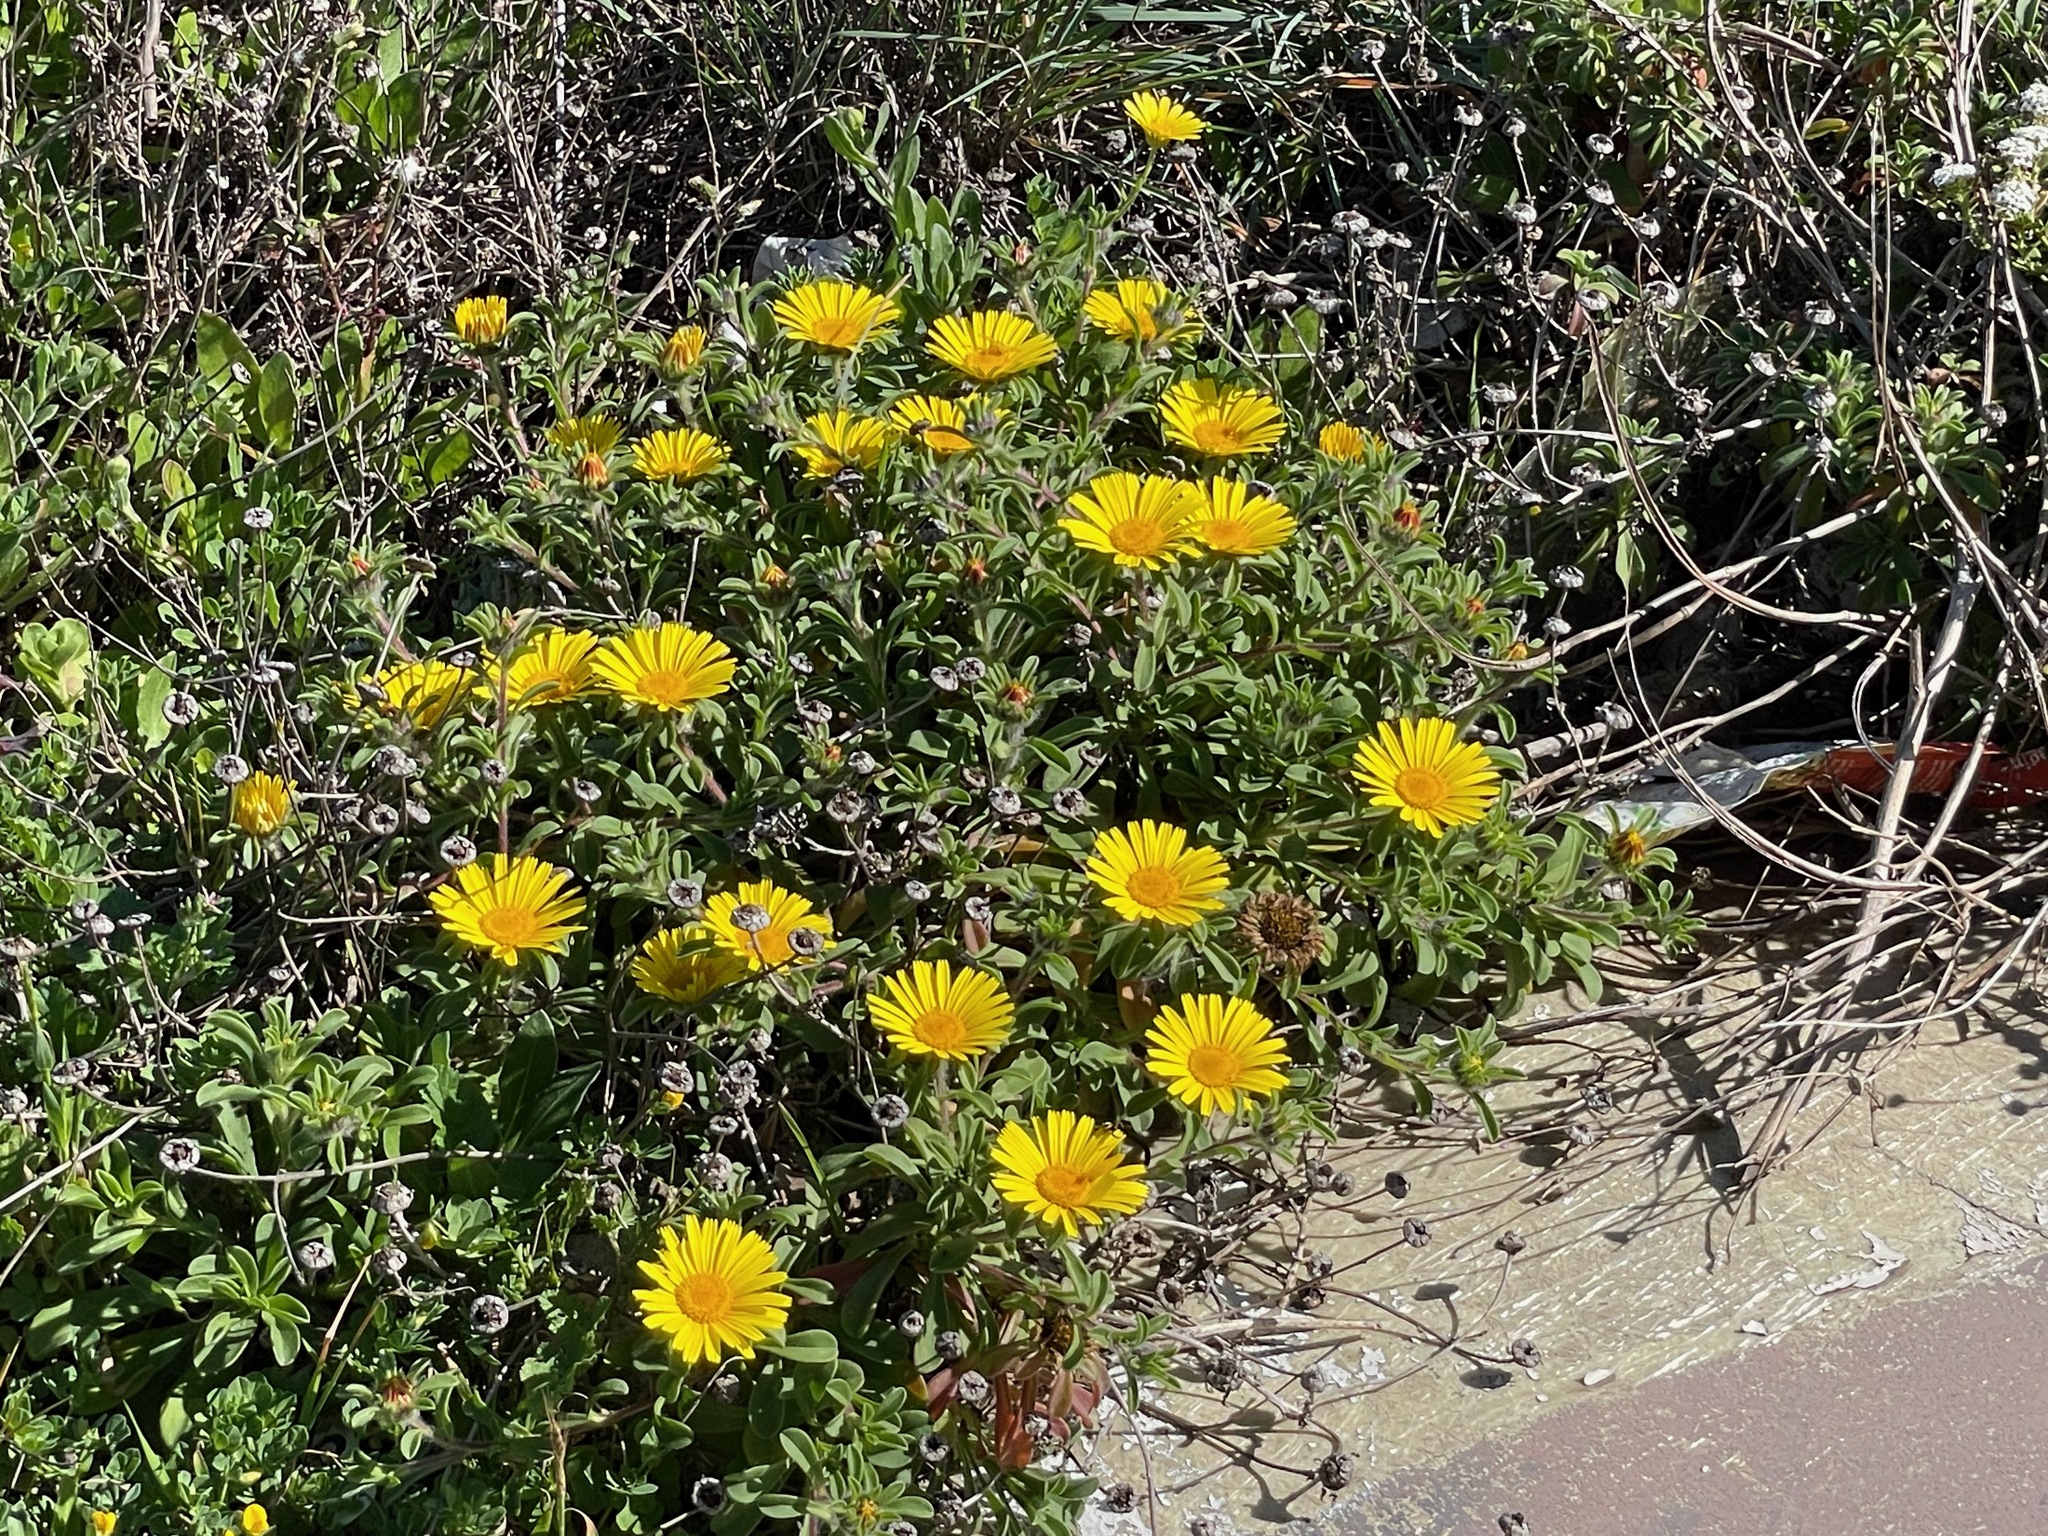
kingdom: Plantae
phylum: Tracheophyta
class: Magnoliopsida
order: Asterales
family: Asteraceae
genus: Pallenis
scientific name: Pallenis maritima
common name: Golden coin daisy
